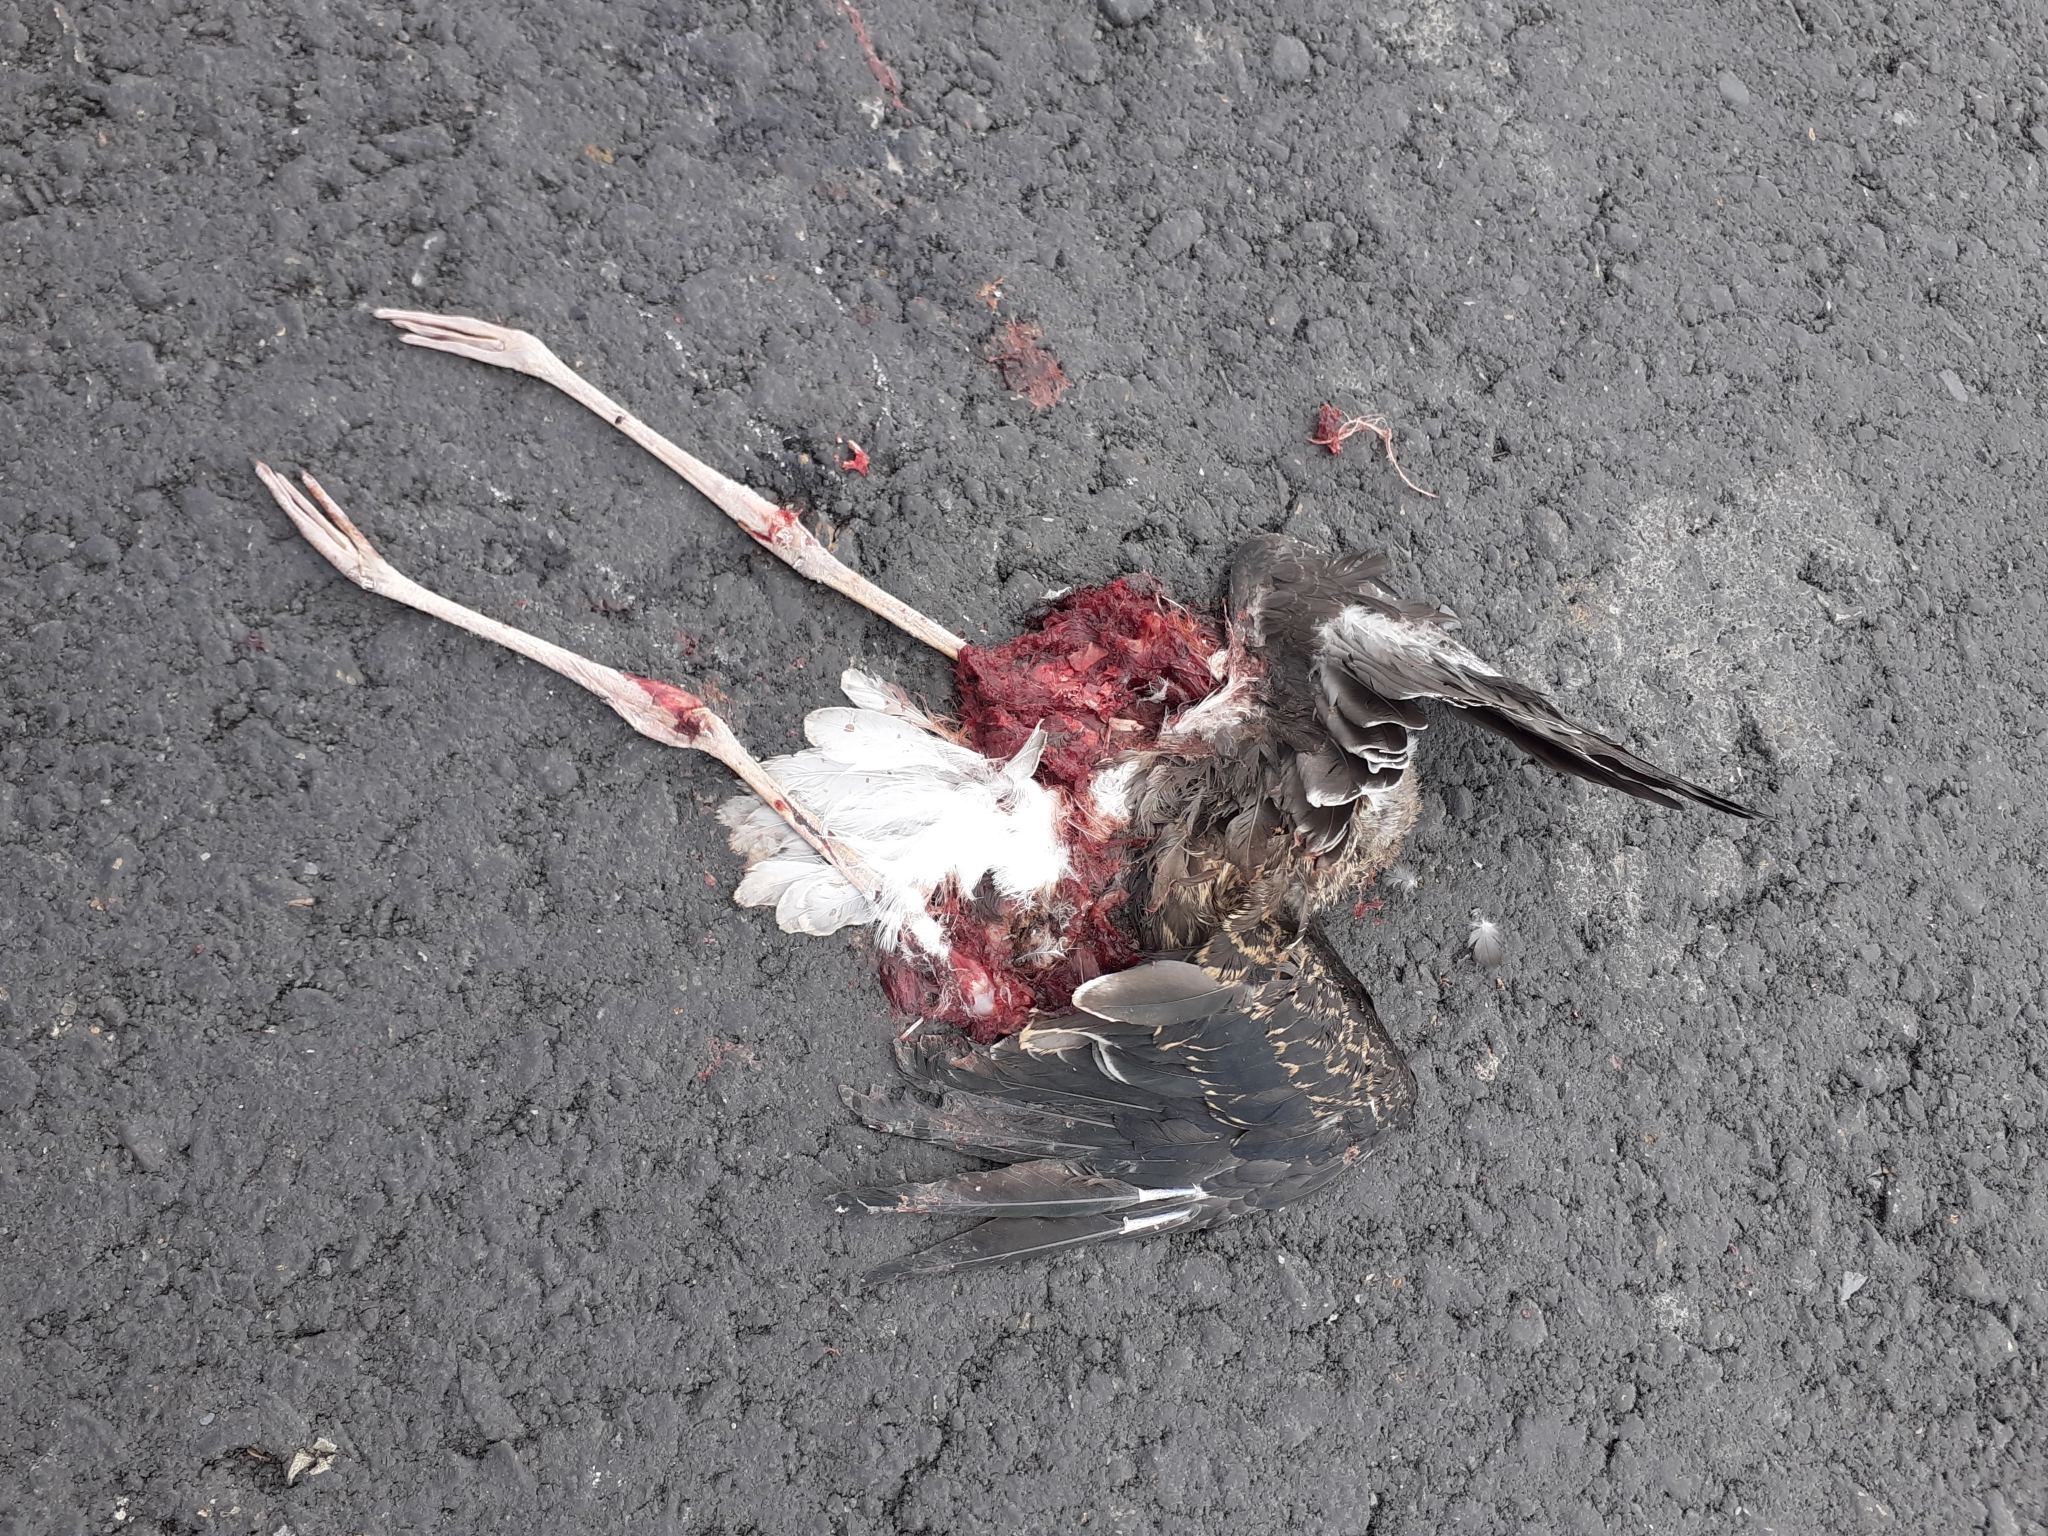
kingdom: Animalia
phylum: Chordata
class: Aves
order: Charadriiformes
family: Recurvirostridae
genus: Himantopus
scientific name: Himantopus himantopus
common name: Black-winged stilt
